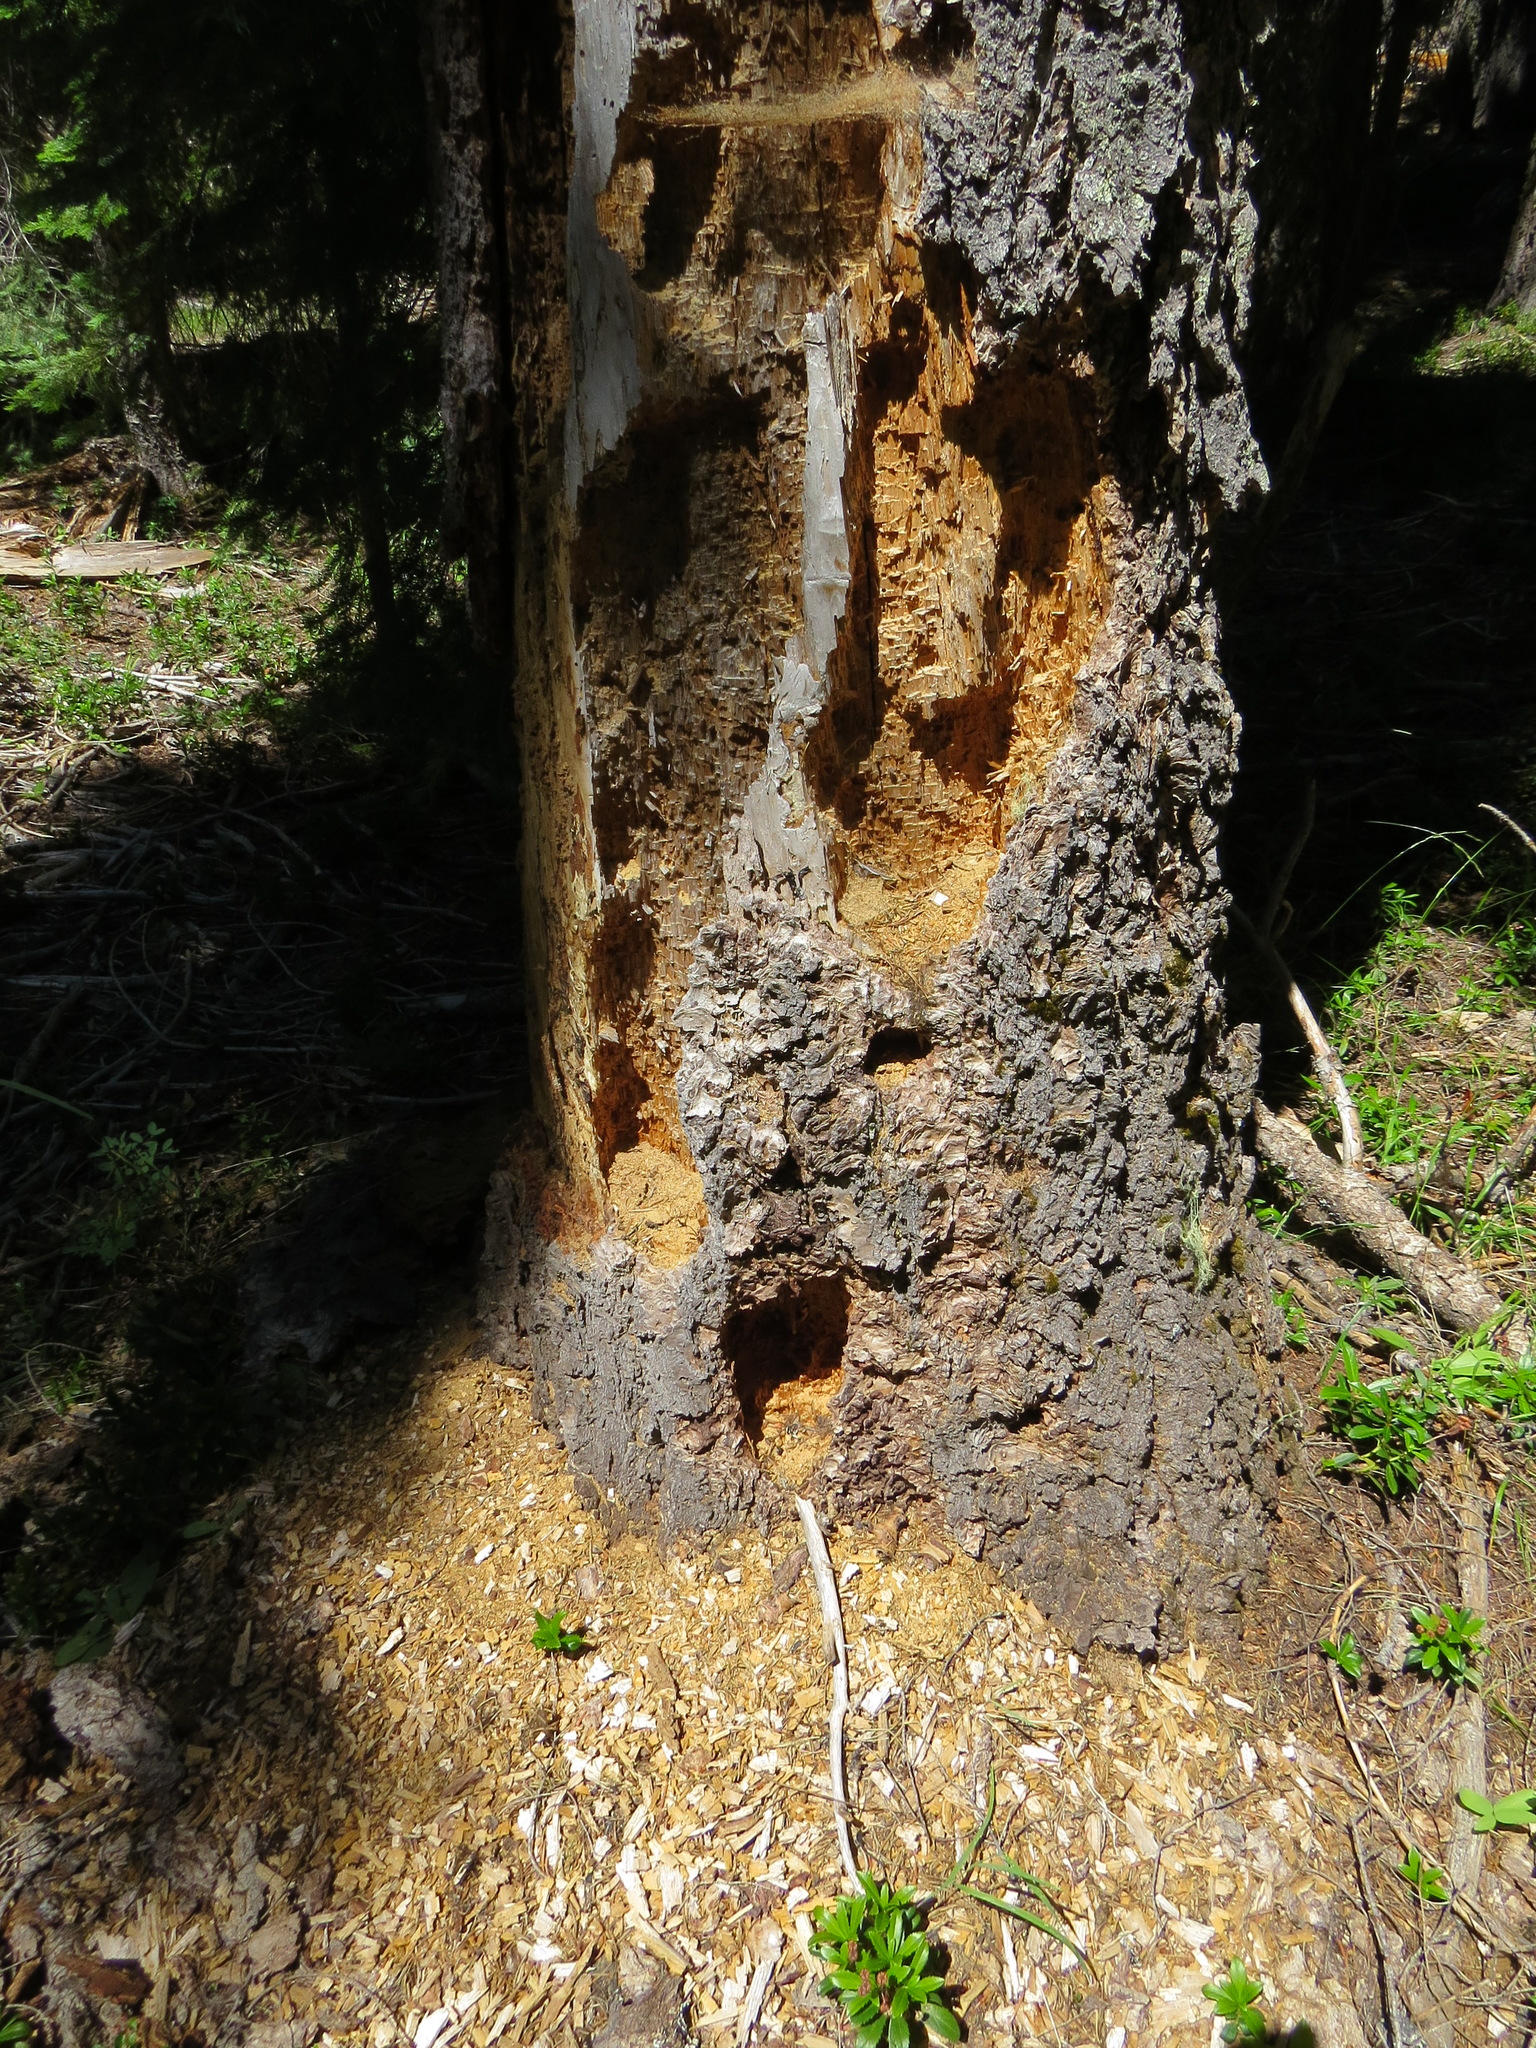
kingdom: Animalia
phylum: Chordata
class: Aves
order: Piciformes
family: Picidae
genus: Dryocopus
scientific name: Dryocopus pileatus
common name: Pileated woodpecker
